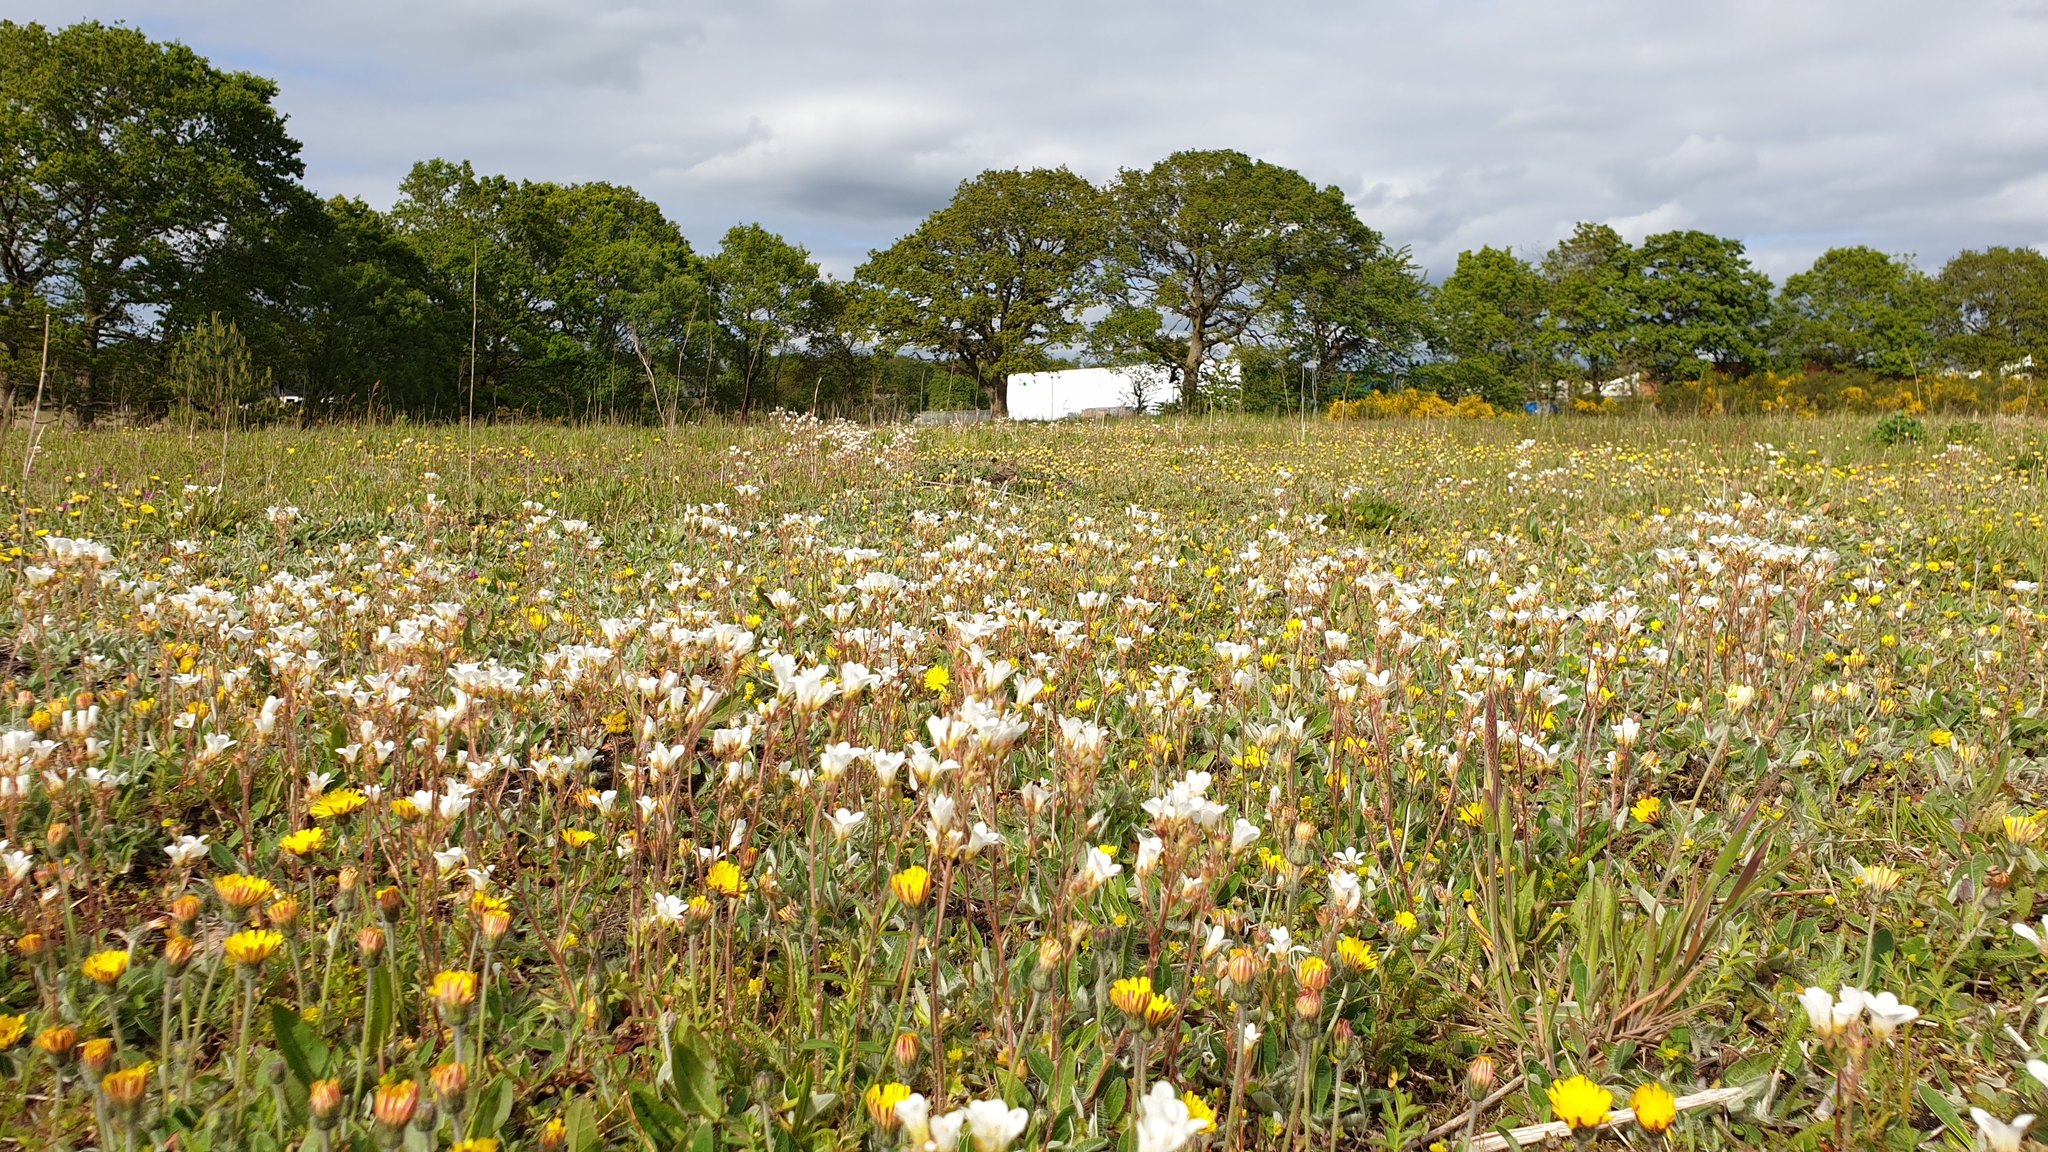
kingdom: Plantae
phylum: Tracheophyta
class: Magnoliopsida
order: Saxifragales
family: Saxifragaceae
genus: Saxifraga
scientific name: Saxifraga granulata
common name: Meadow saxifrage
